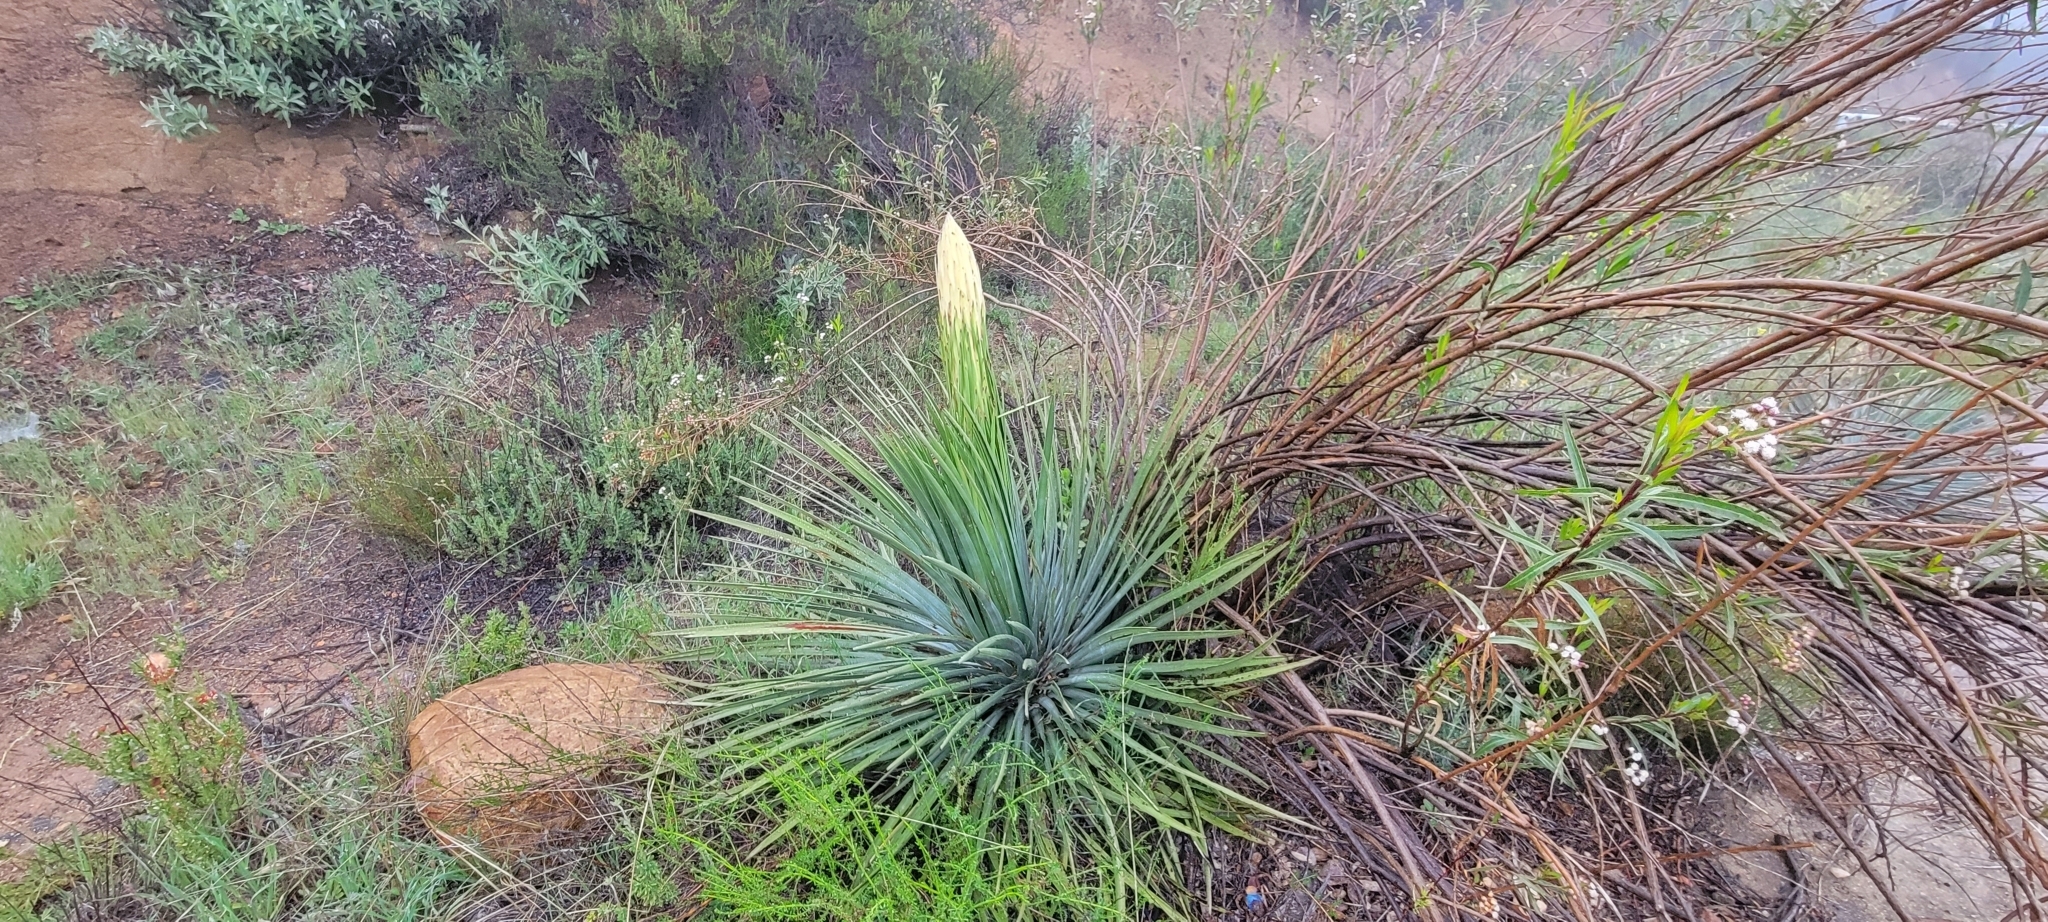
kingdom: Plantae
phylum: Tracheophyta
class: Liliopsida
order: Asparagales
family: Asparagaceae
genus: Hesperoyucca
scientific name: Hesperoyucca whipplei
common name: Our lord's-candle
